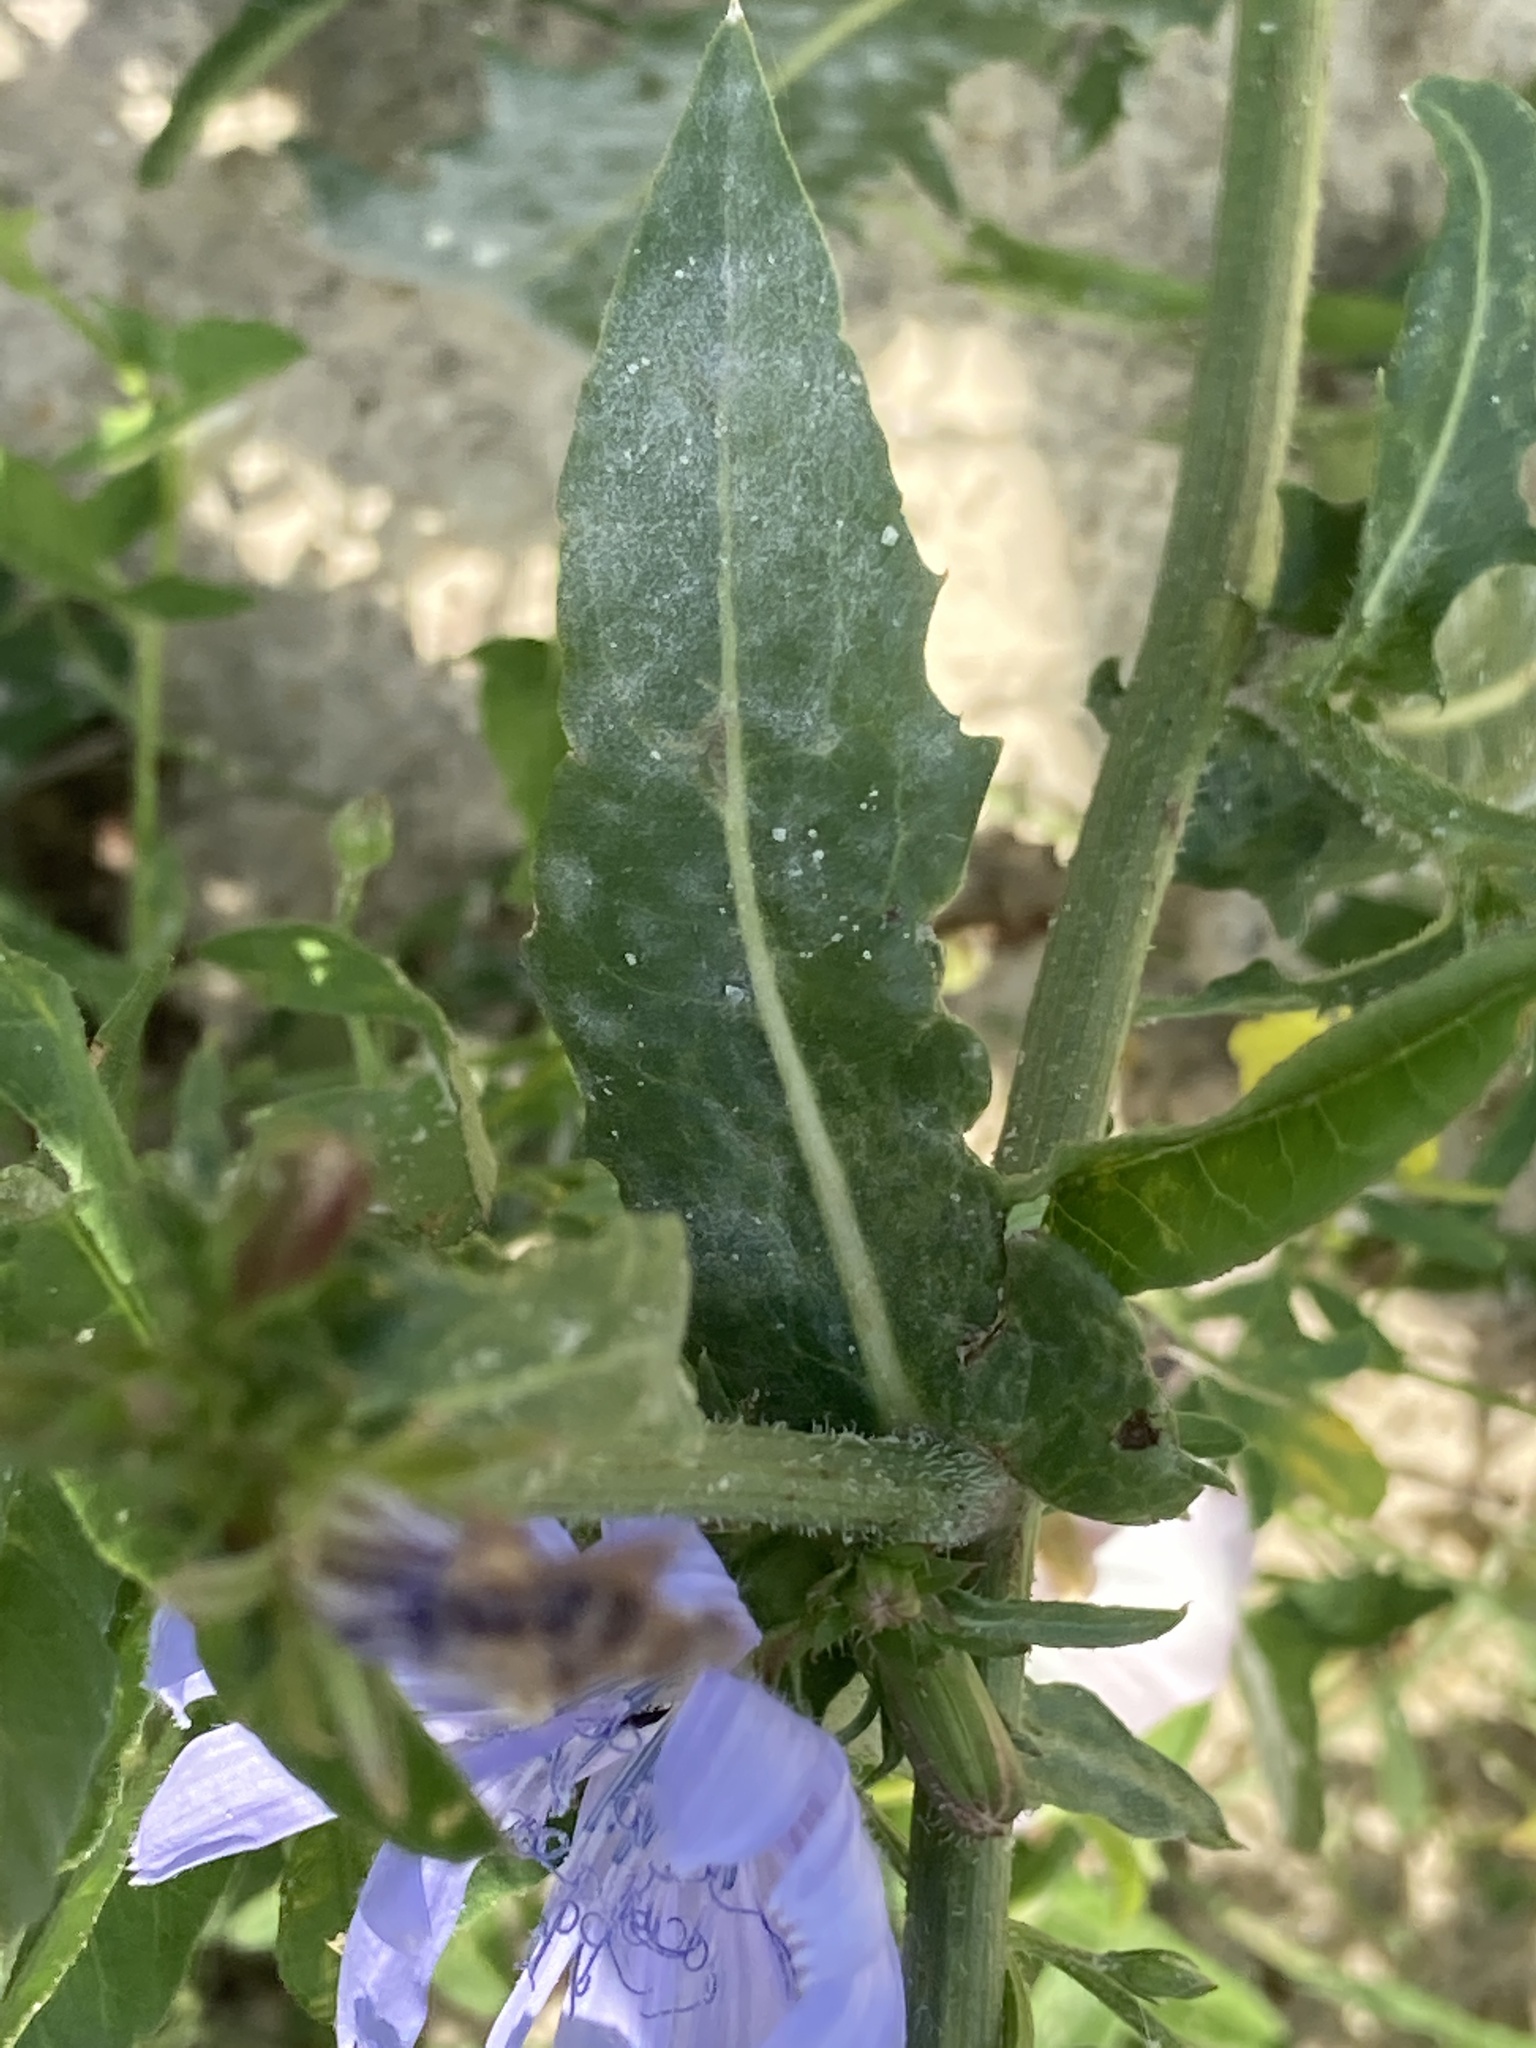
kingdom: Plantae
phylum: Tracheophyta
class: Magnoliopsida
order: Asterales
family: Asteraceae
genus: Cichorium
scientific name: Cichorium intybus
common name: Chicory
